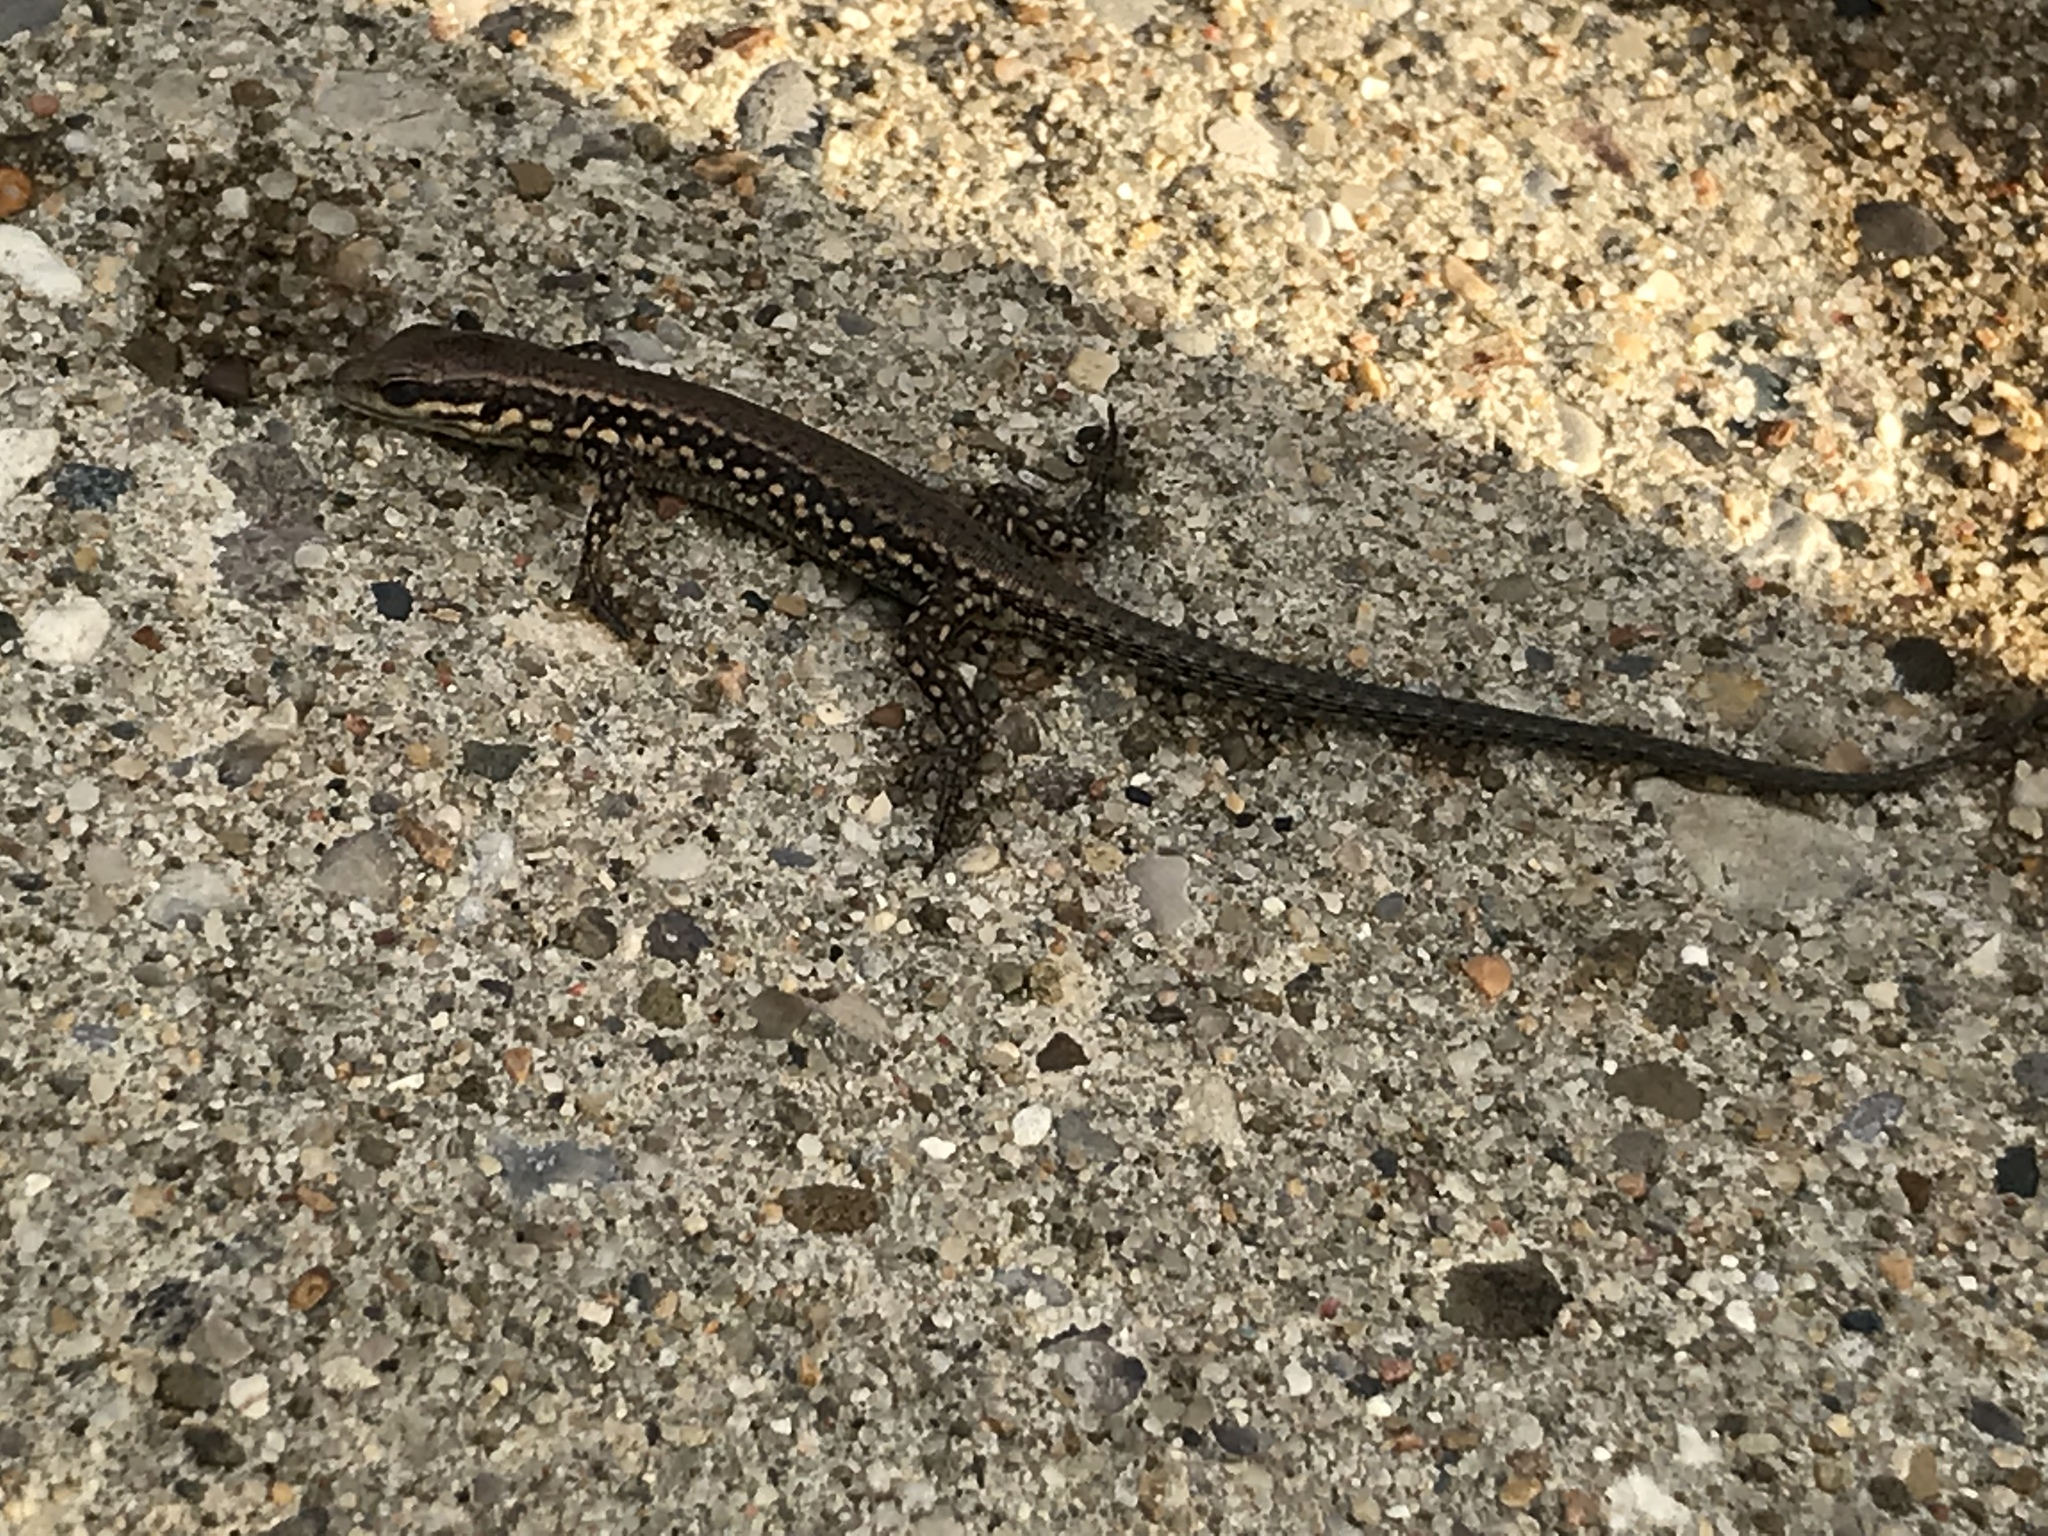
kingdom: Animalia
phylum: Chordata
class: Squamata
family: Lacertidae
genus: Podarcis
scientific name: Podarcis muralis
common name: Common wall lizard
